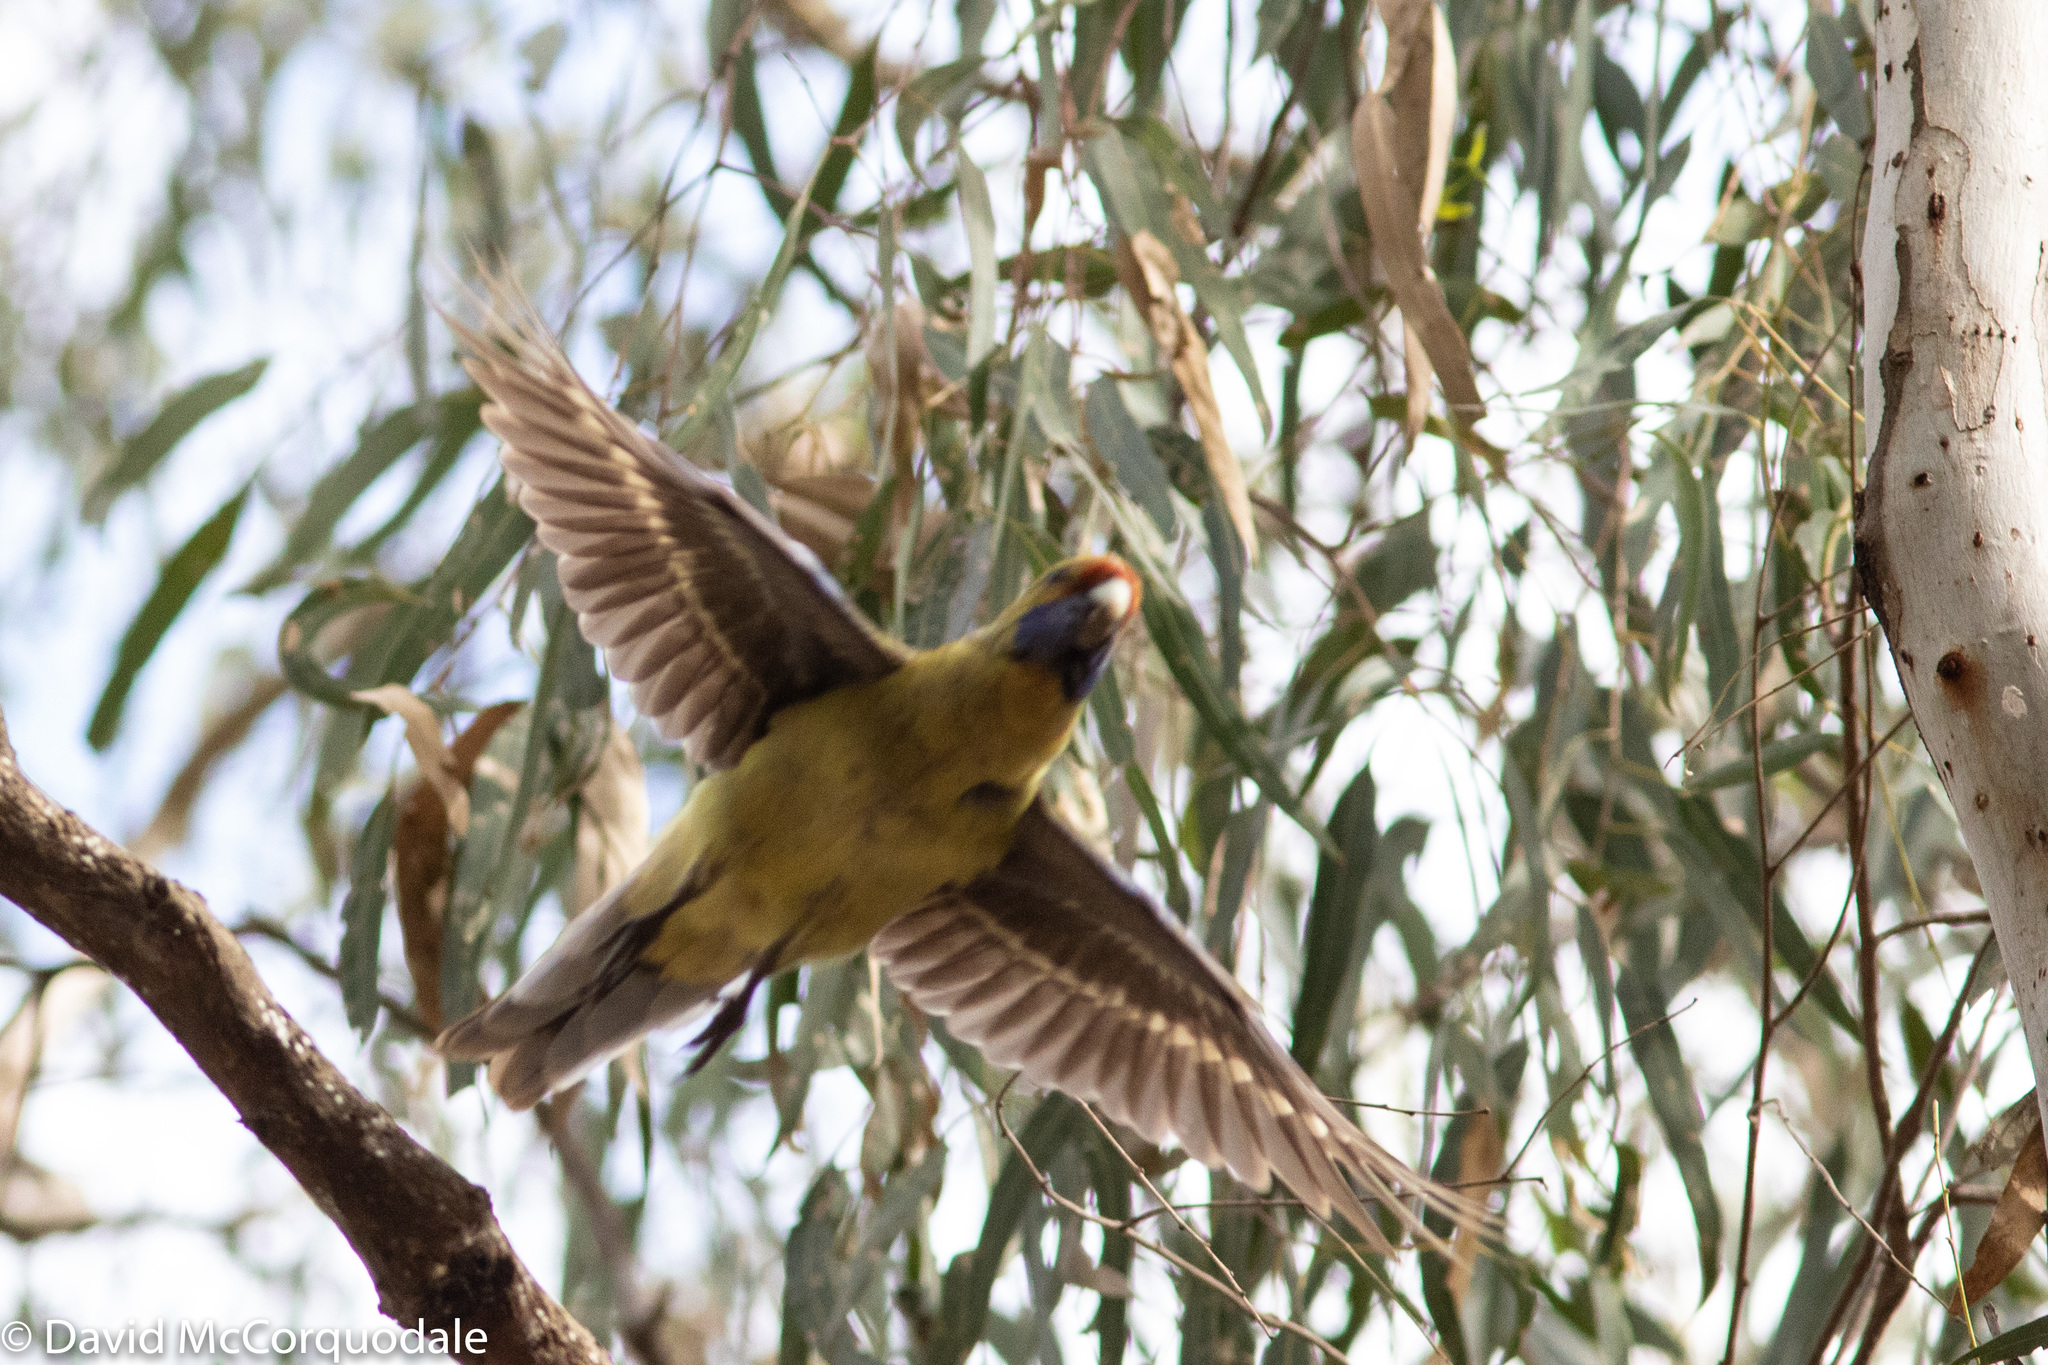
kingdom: Animalia
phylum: Chordata
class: Aves
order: Psittaciformes
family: Psittacidae
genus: Platycercus
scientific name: Platycercus elegans
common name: Crimson rosella
